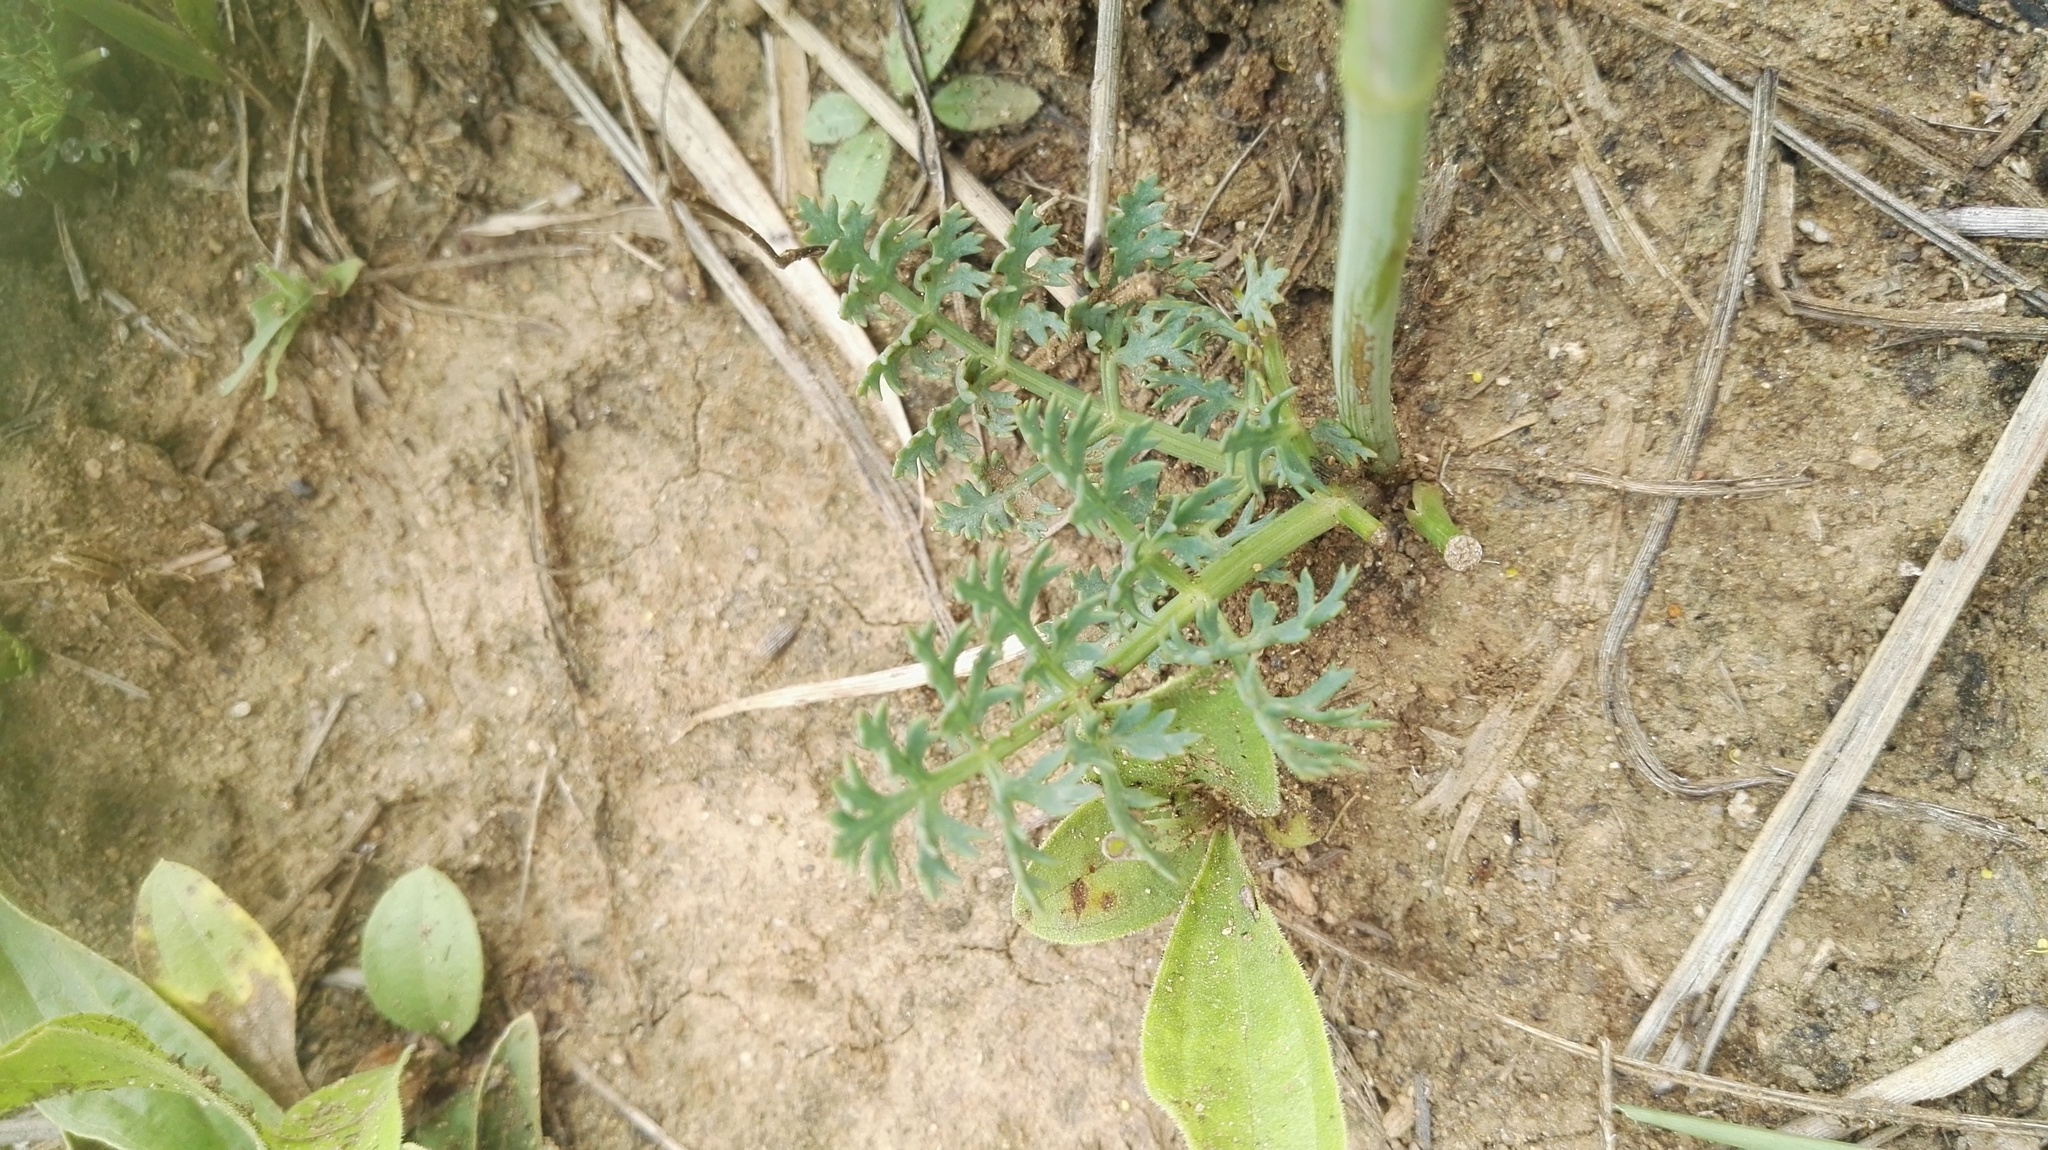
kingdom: Plantae
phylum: Tracheophyta
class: Magnoliopsida
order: Apiales
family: Apiaceae
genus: Afrosciadium
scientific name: Afrosciadium magalismontanum
